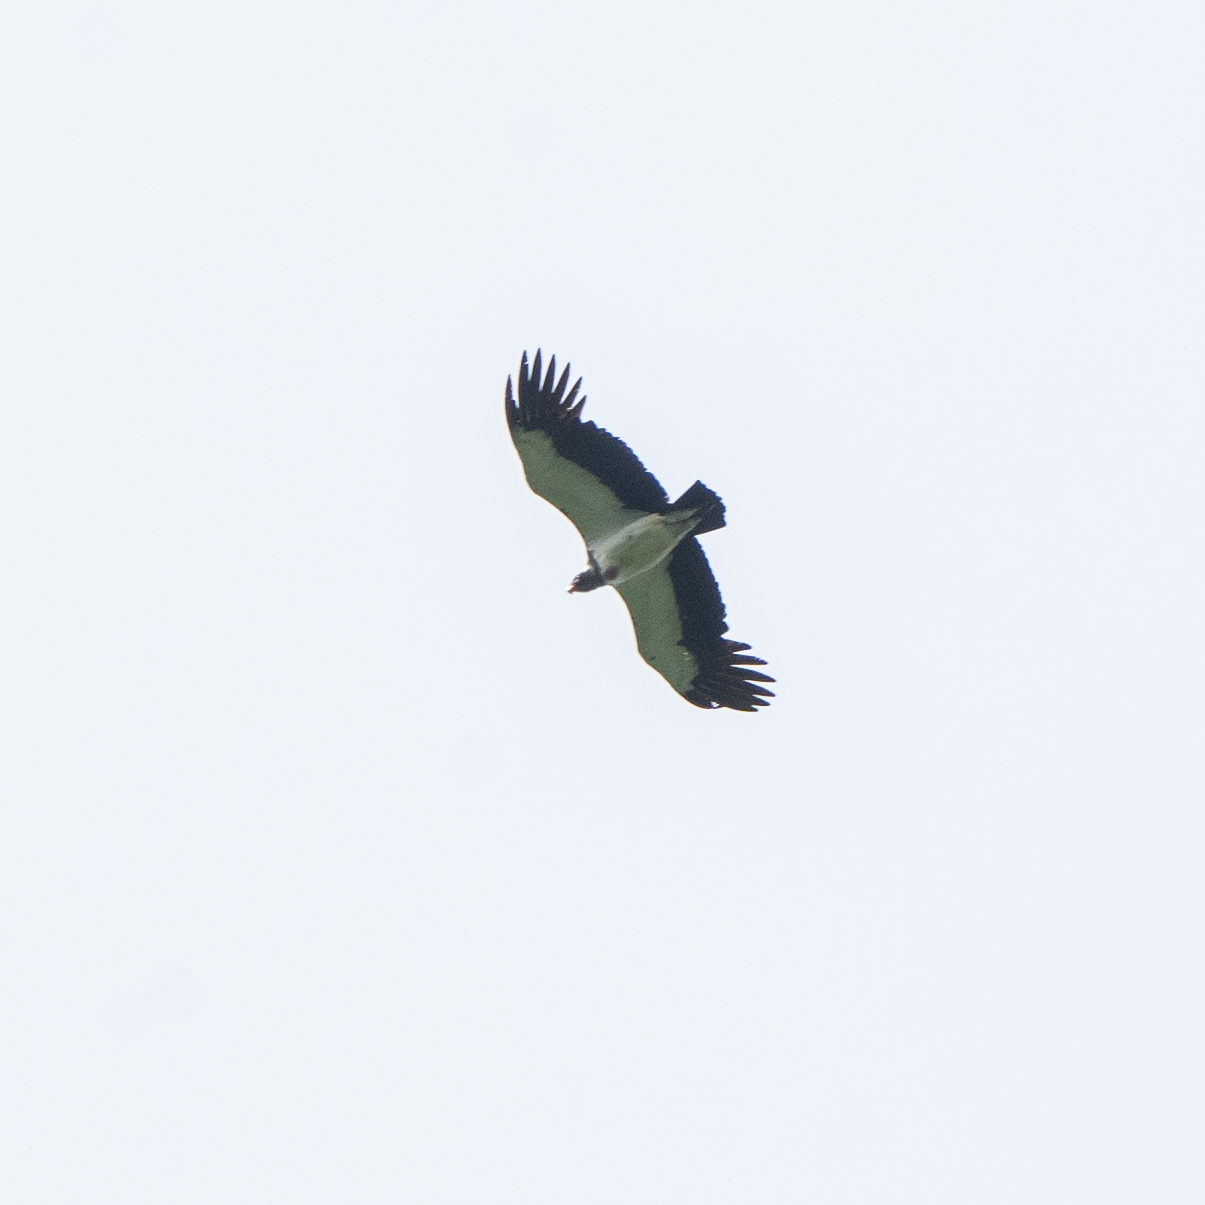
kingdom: Animalia
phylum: Chordata
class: Aves
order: Accipitriformes
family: Cathartidae
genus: Sarcoramphus
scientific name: Sarcoramphus papa
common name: King vulture
